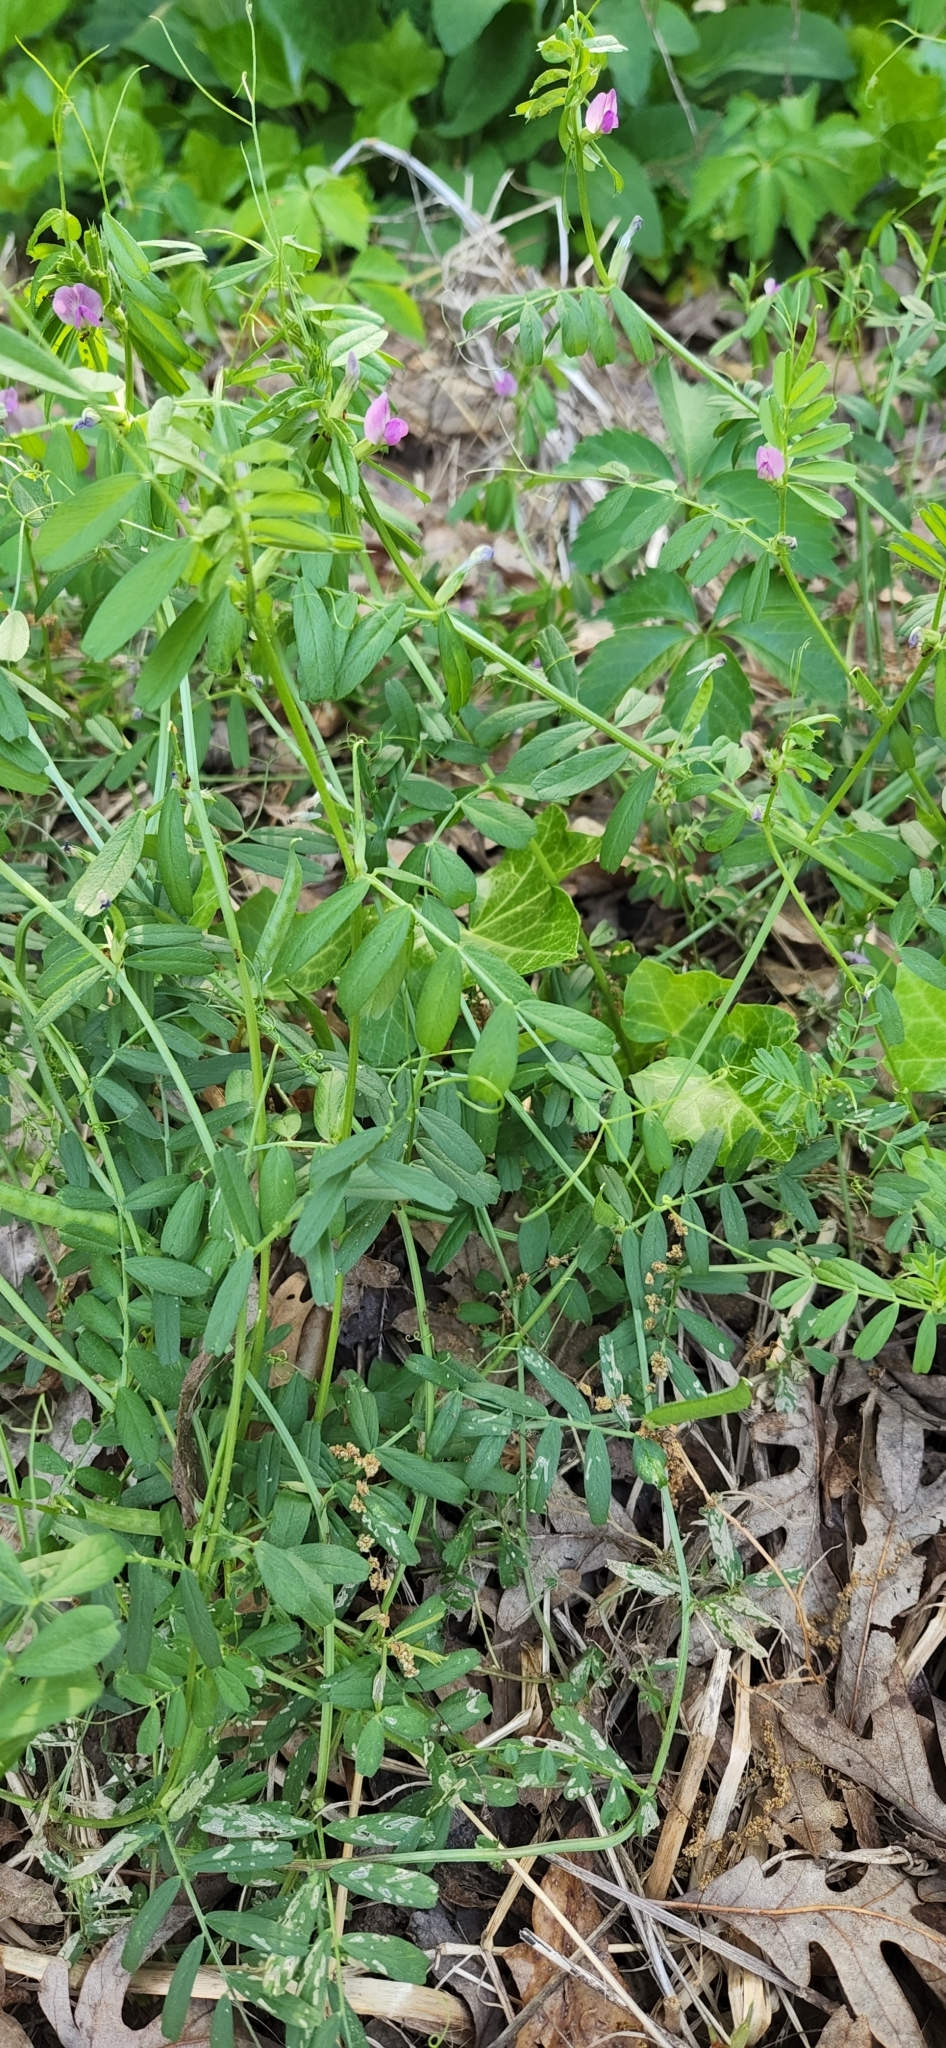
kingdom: Plantae
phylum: Tracheophyta
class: Magnoliopsida
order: Fabales
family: Fabaceae
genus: Vicia
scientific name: Vicia sativa
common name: Garden vetch
